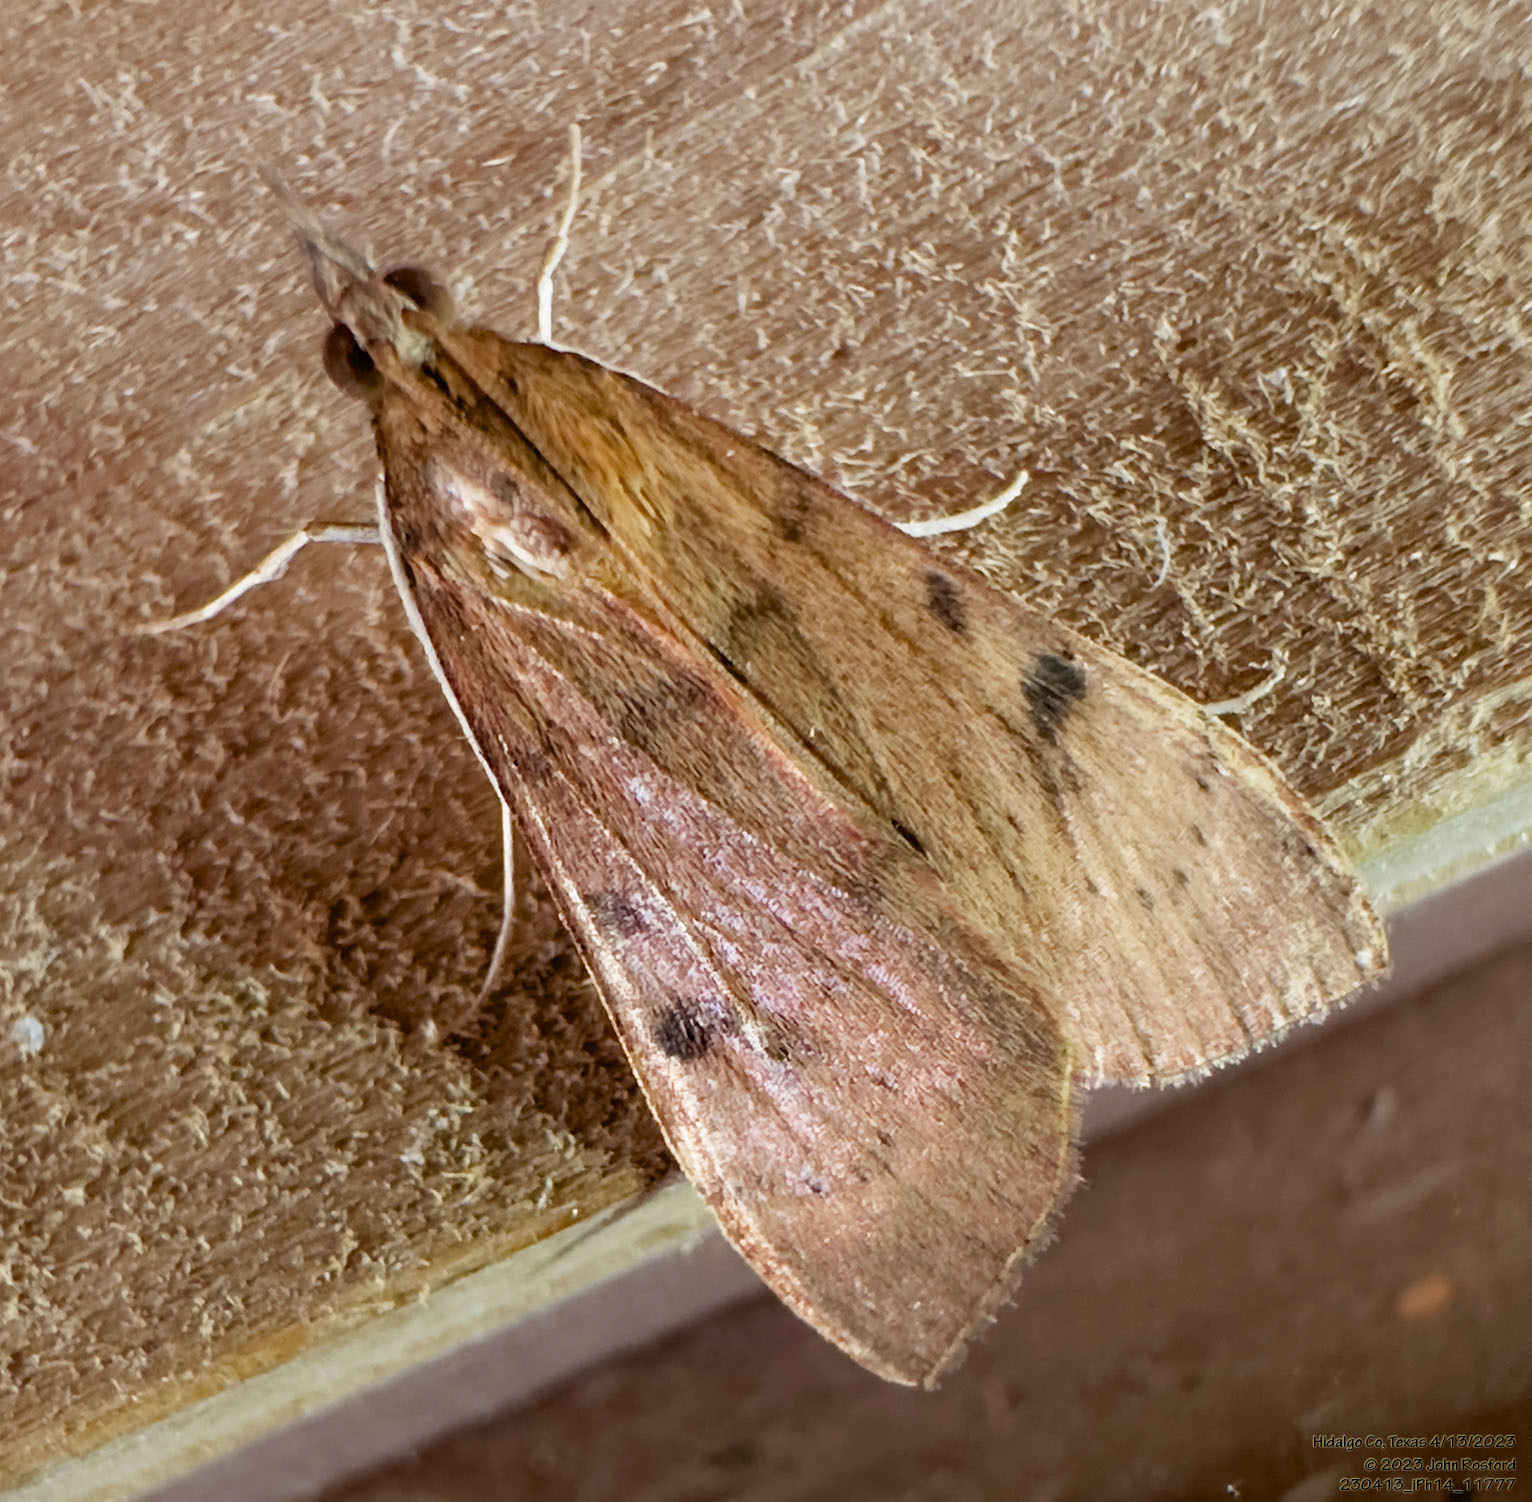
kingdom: Animalia
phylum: Arthropoda
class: Insecta
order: Lepidoptera
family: Crambidae
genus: Uresiphita
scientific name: Uresiphita reversalis
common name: Genista broom moth
